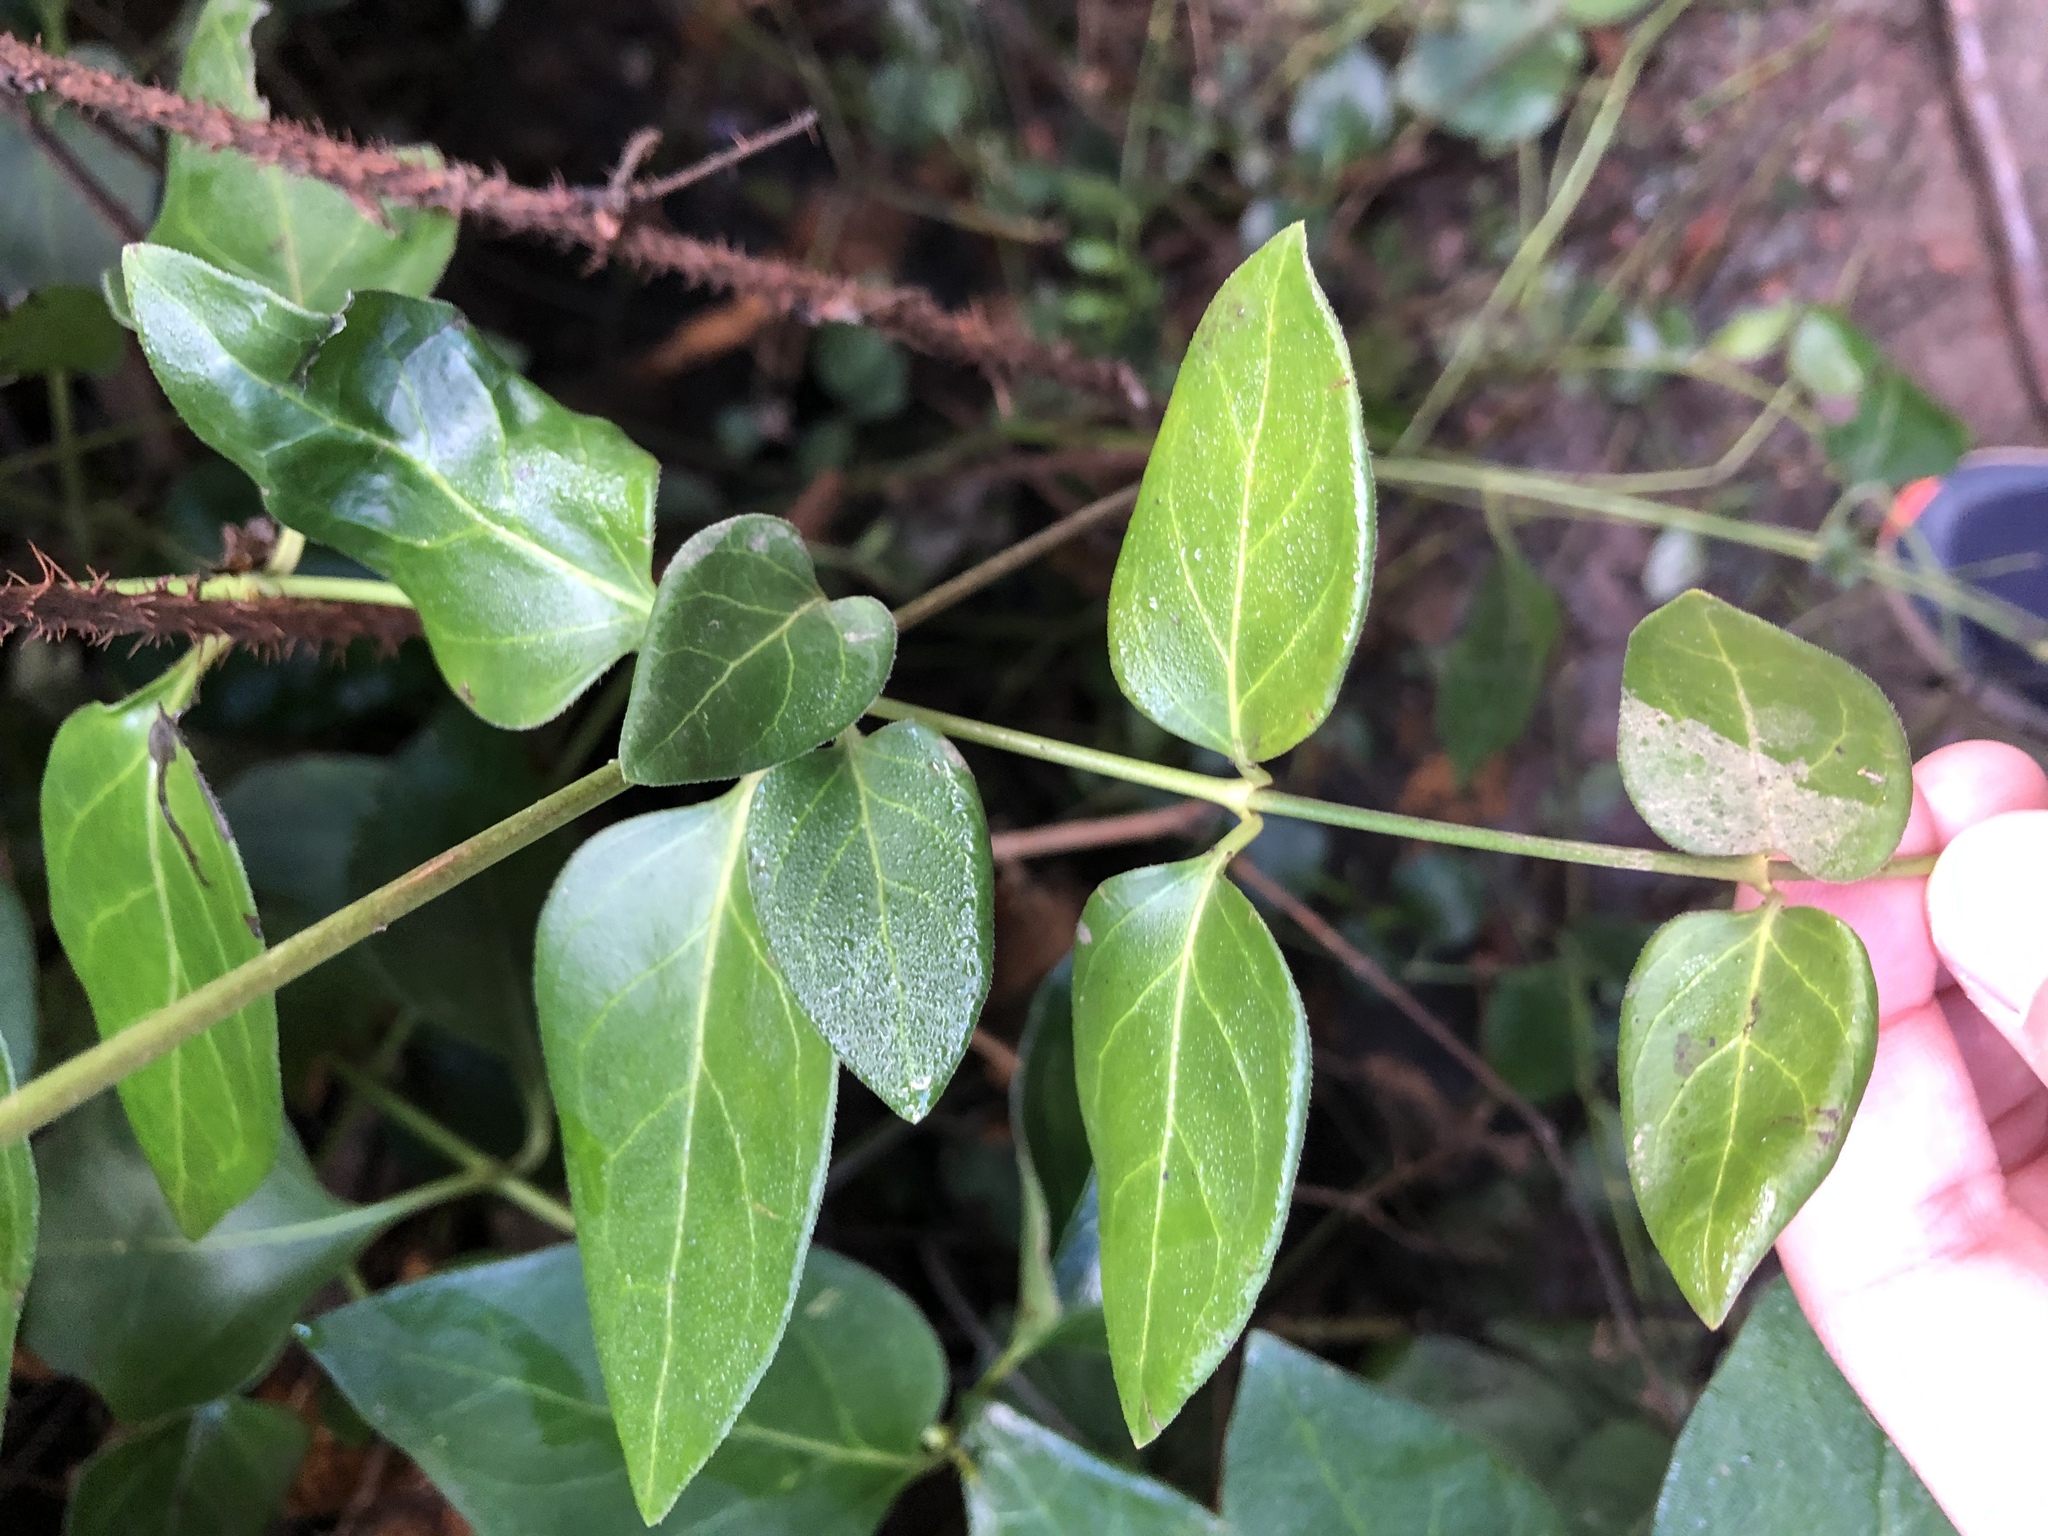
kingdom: Plantae
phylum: Tracheophyta
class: Magnoliopsida
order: Gentianales
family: Apocynaceae
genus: Vinca
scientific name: Vinca major
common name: Greater periwinkle
